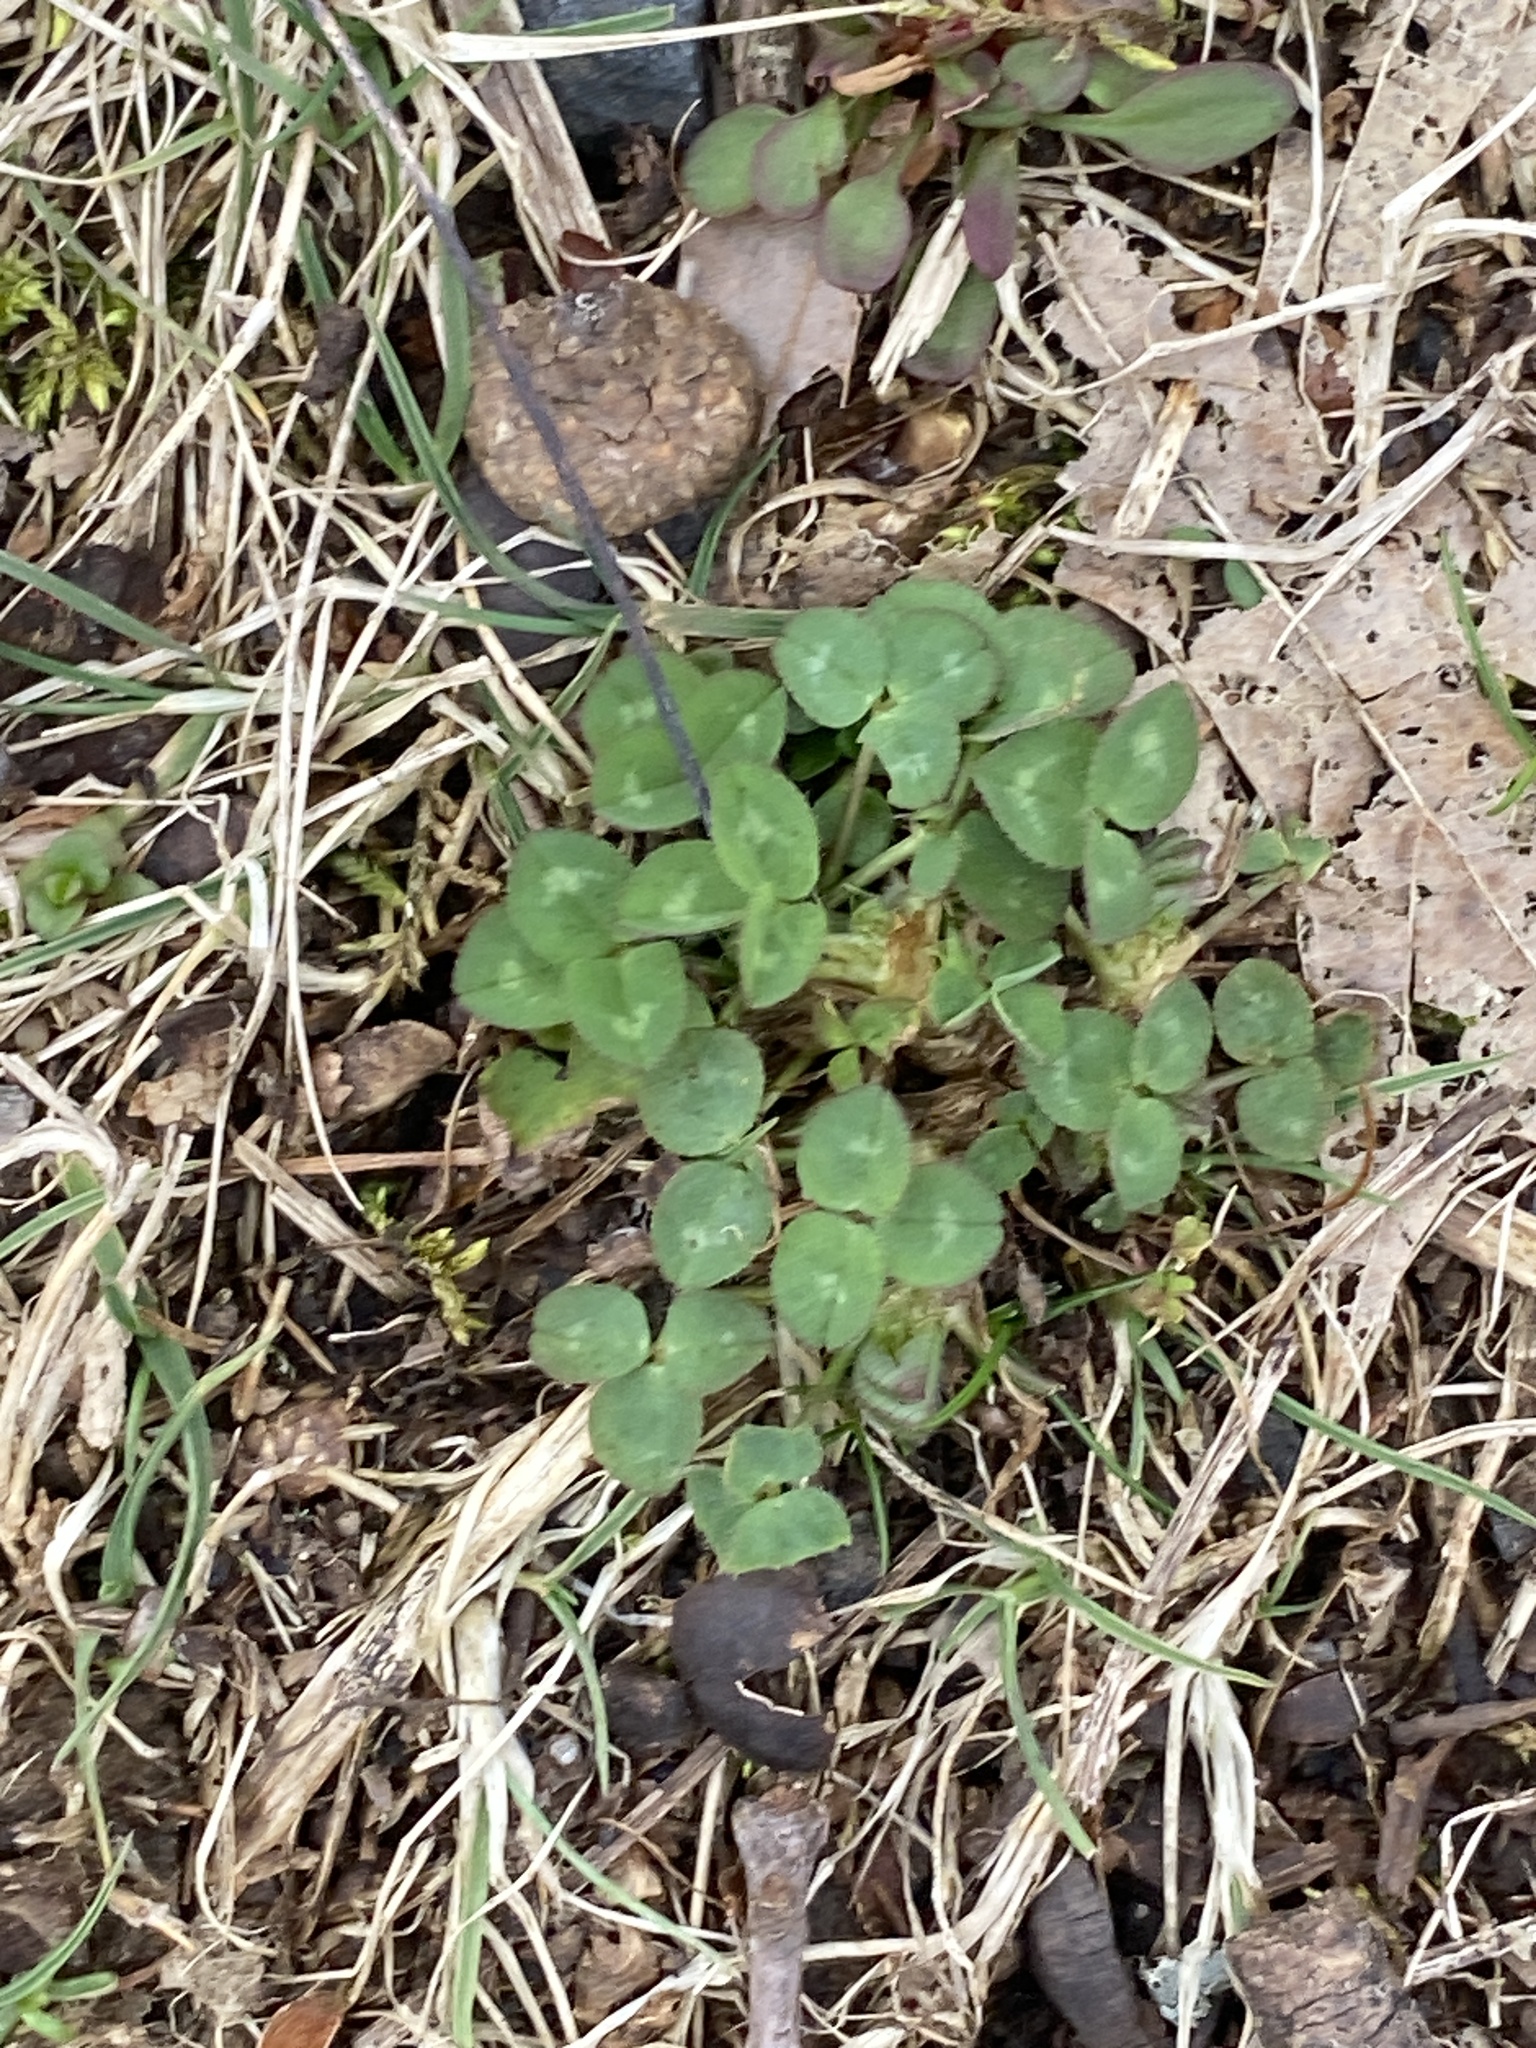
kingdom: Plantae
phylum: Tracheophyta
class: Magnoliopsida
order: Fabales
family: Fabaceae
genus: Trifolium
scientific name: Trifolium repens
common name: White clover
